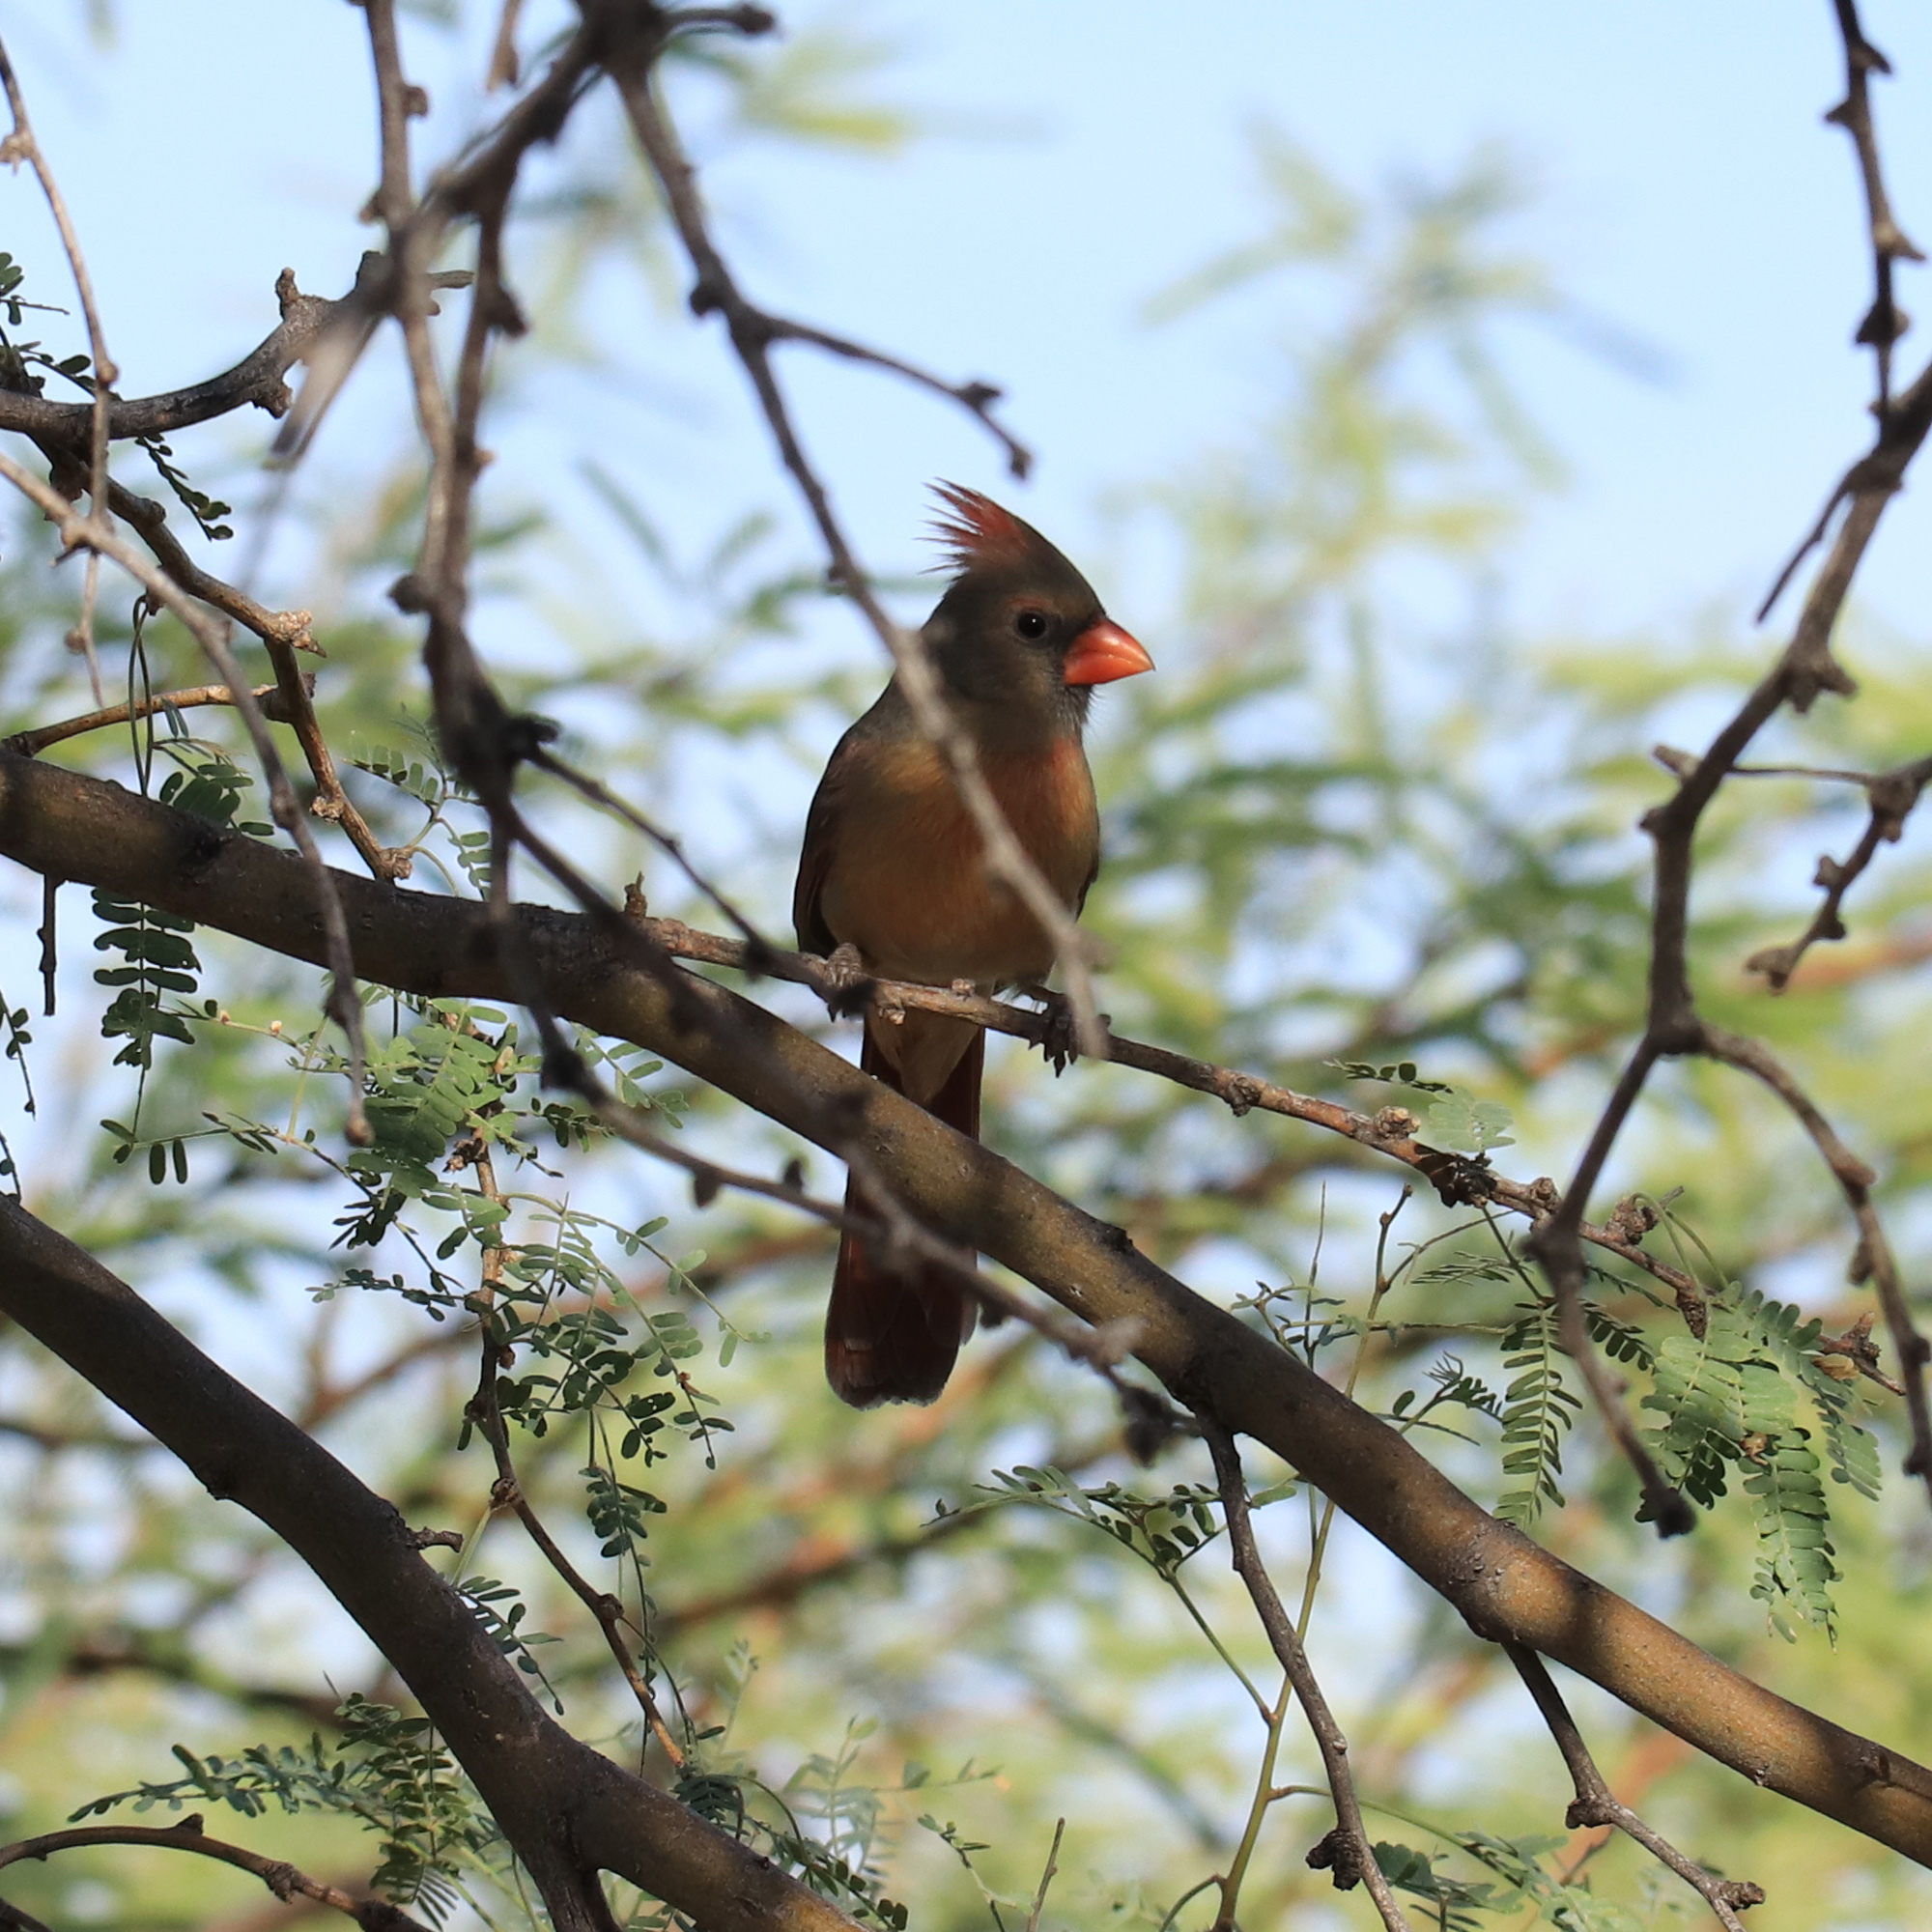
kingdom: Animalia
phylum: Chordata
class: Aves
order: Passeriformes
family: Cardinalidae
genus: Cardinalis
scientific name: Cardinalis cardinalis
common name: Northern cardinal
